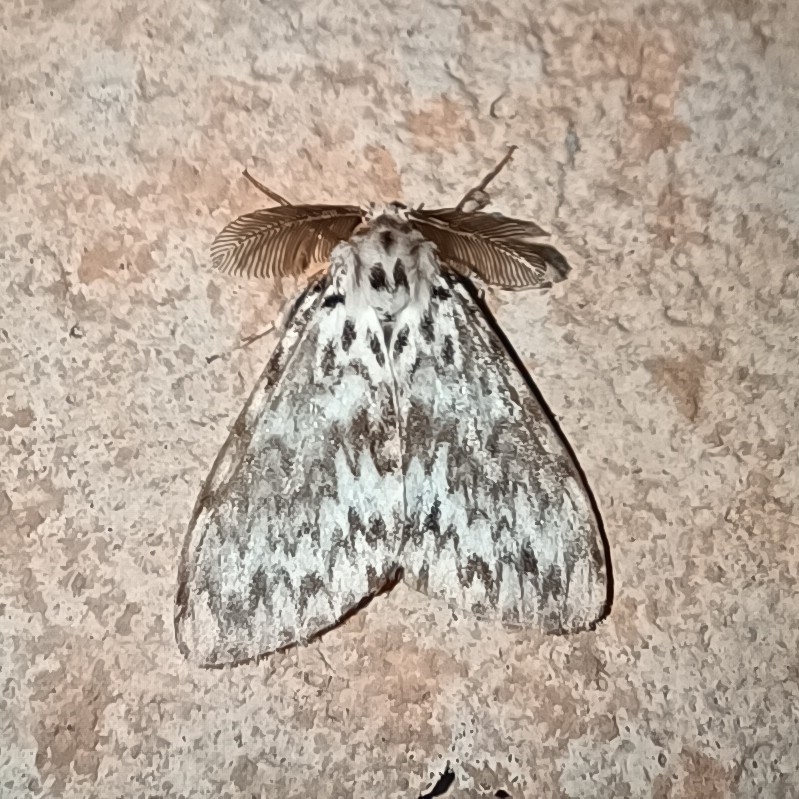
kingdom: Animalia
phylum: Arthropoda
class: Insecta
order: Lepidoptera
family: Erebidae
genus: Lymantria
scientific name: Lymantria monacha
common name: Black arches
